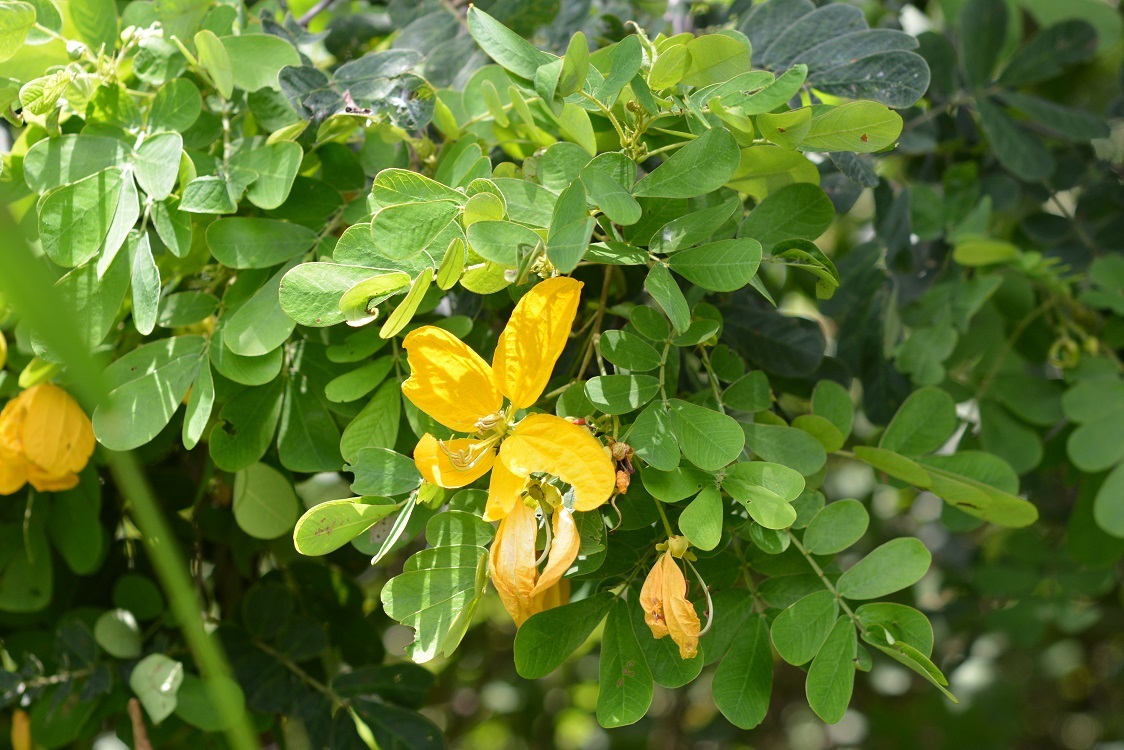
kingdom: Plantae
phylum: Tracheophyta
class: Magnoliopsida
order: Fabales
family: Fabaceae
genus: Senna
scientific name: Senna skinneri
